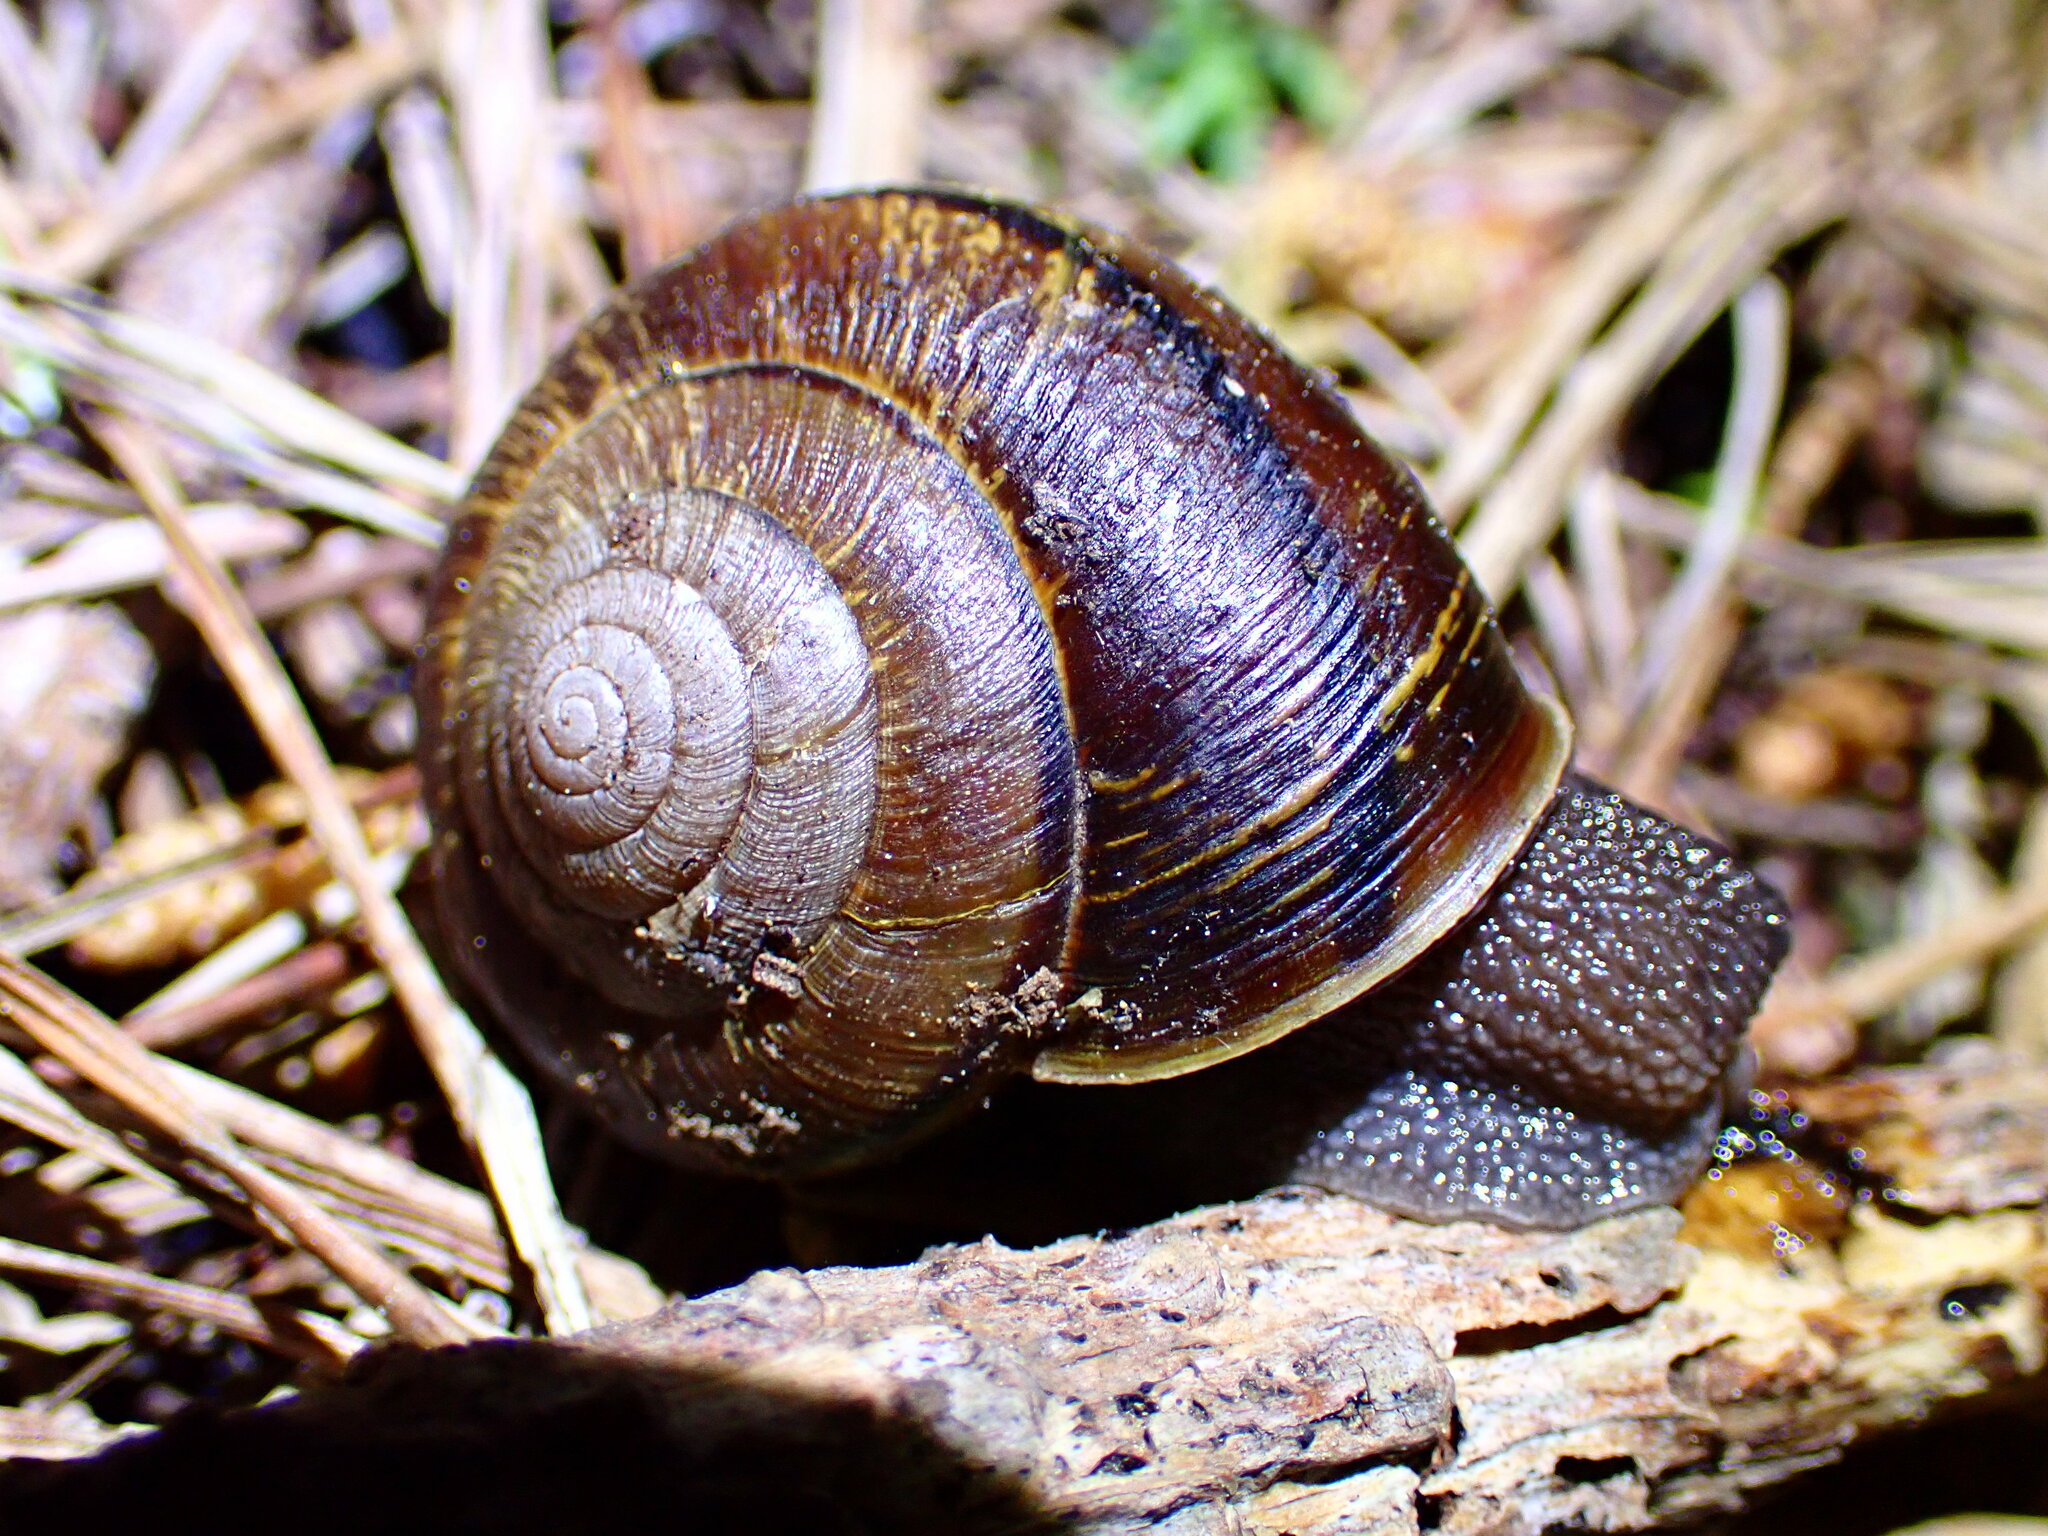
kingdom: Animalia
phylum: Mollusca
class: Gastropoda
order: Stylommatophora
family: Xanthonychidae
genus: Helminthoglypta
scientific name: Helminthoglypta arrosa
